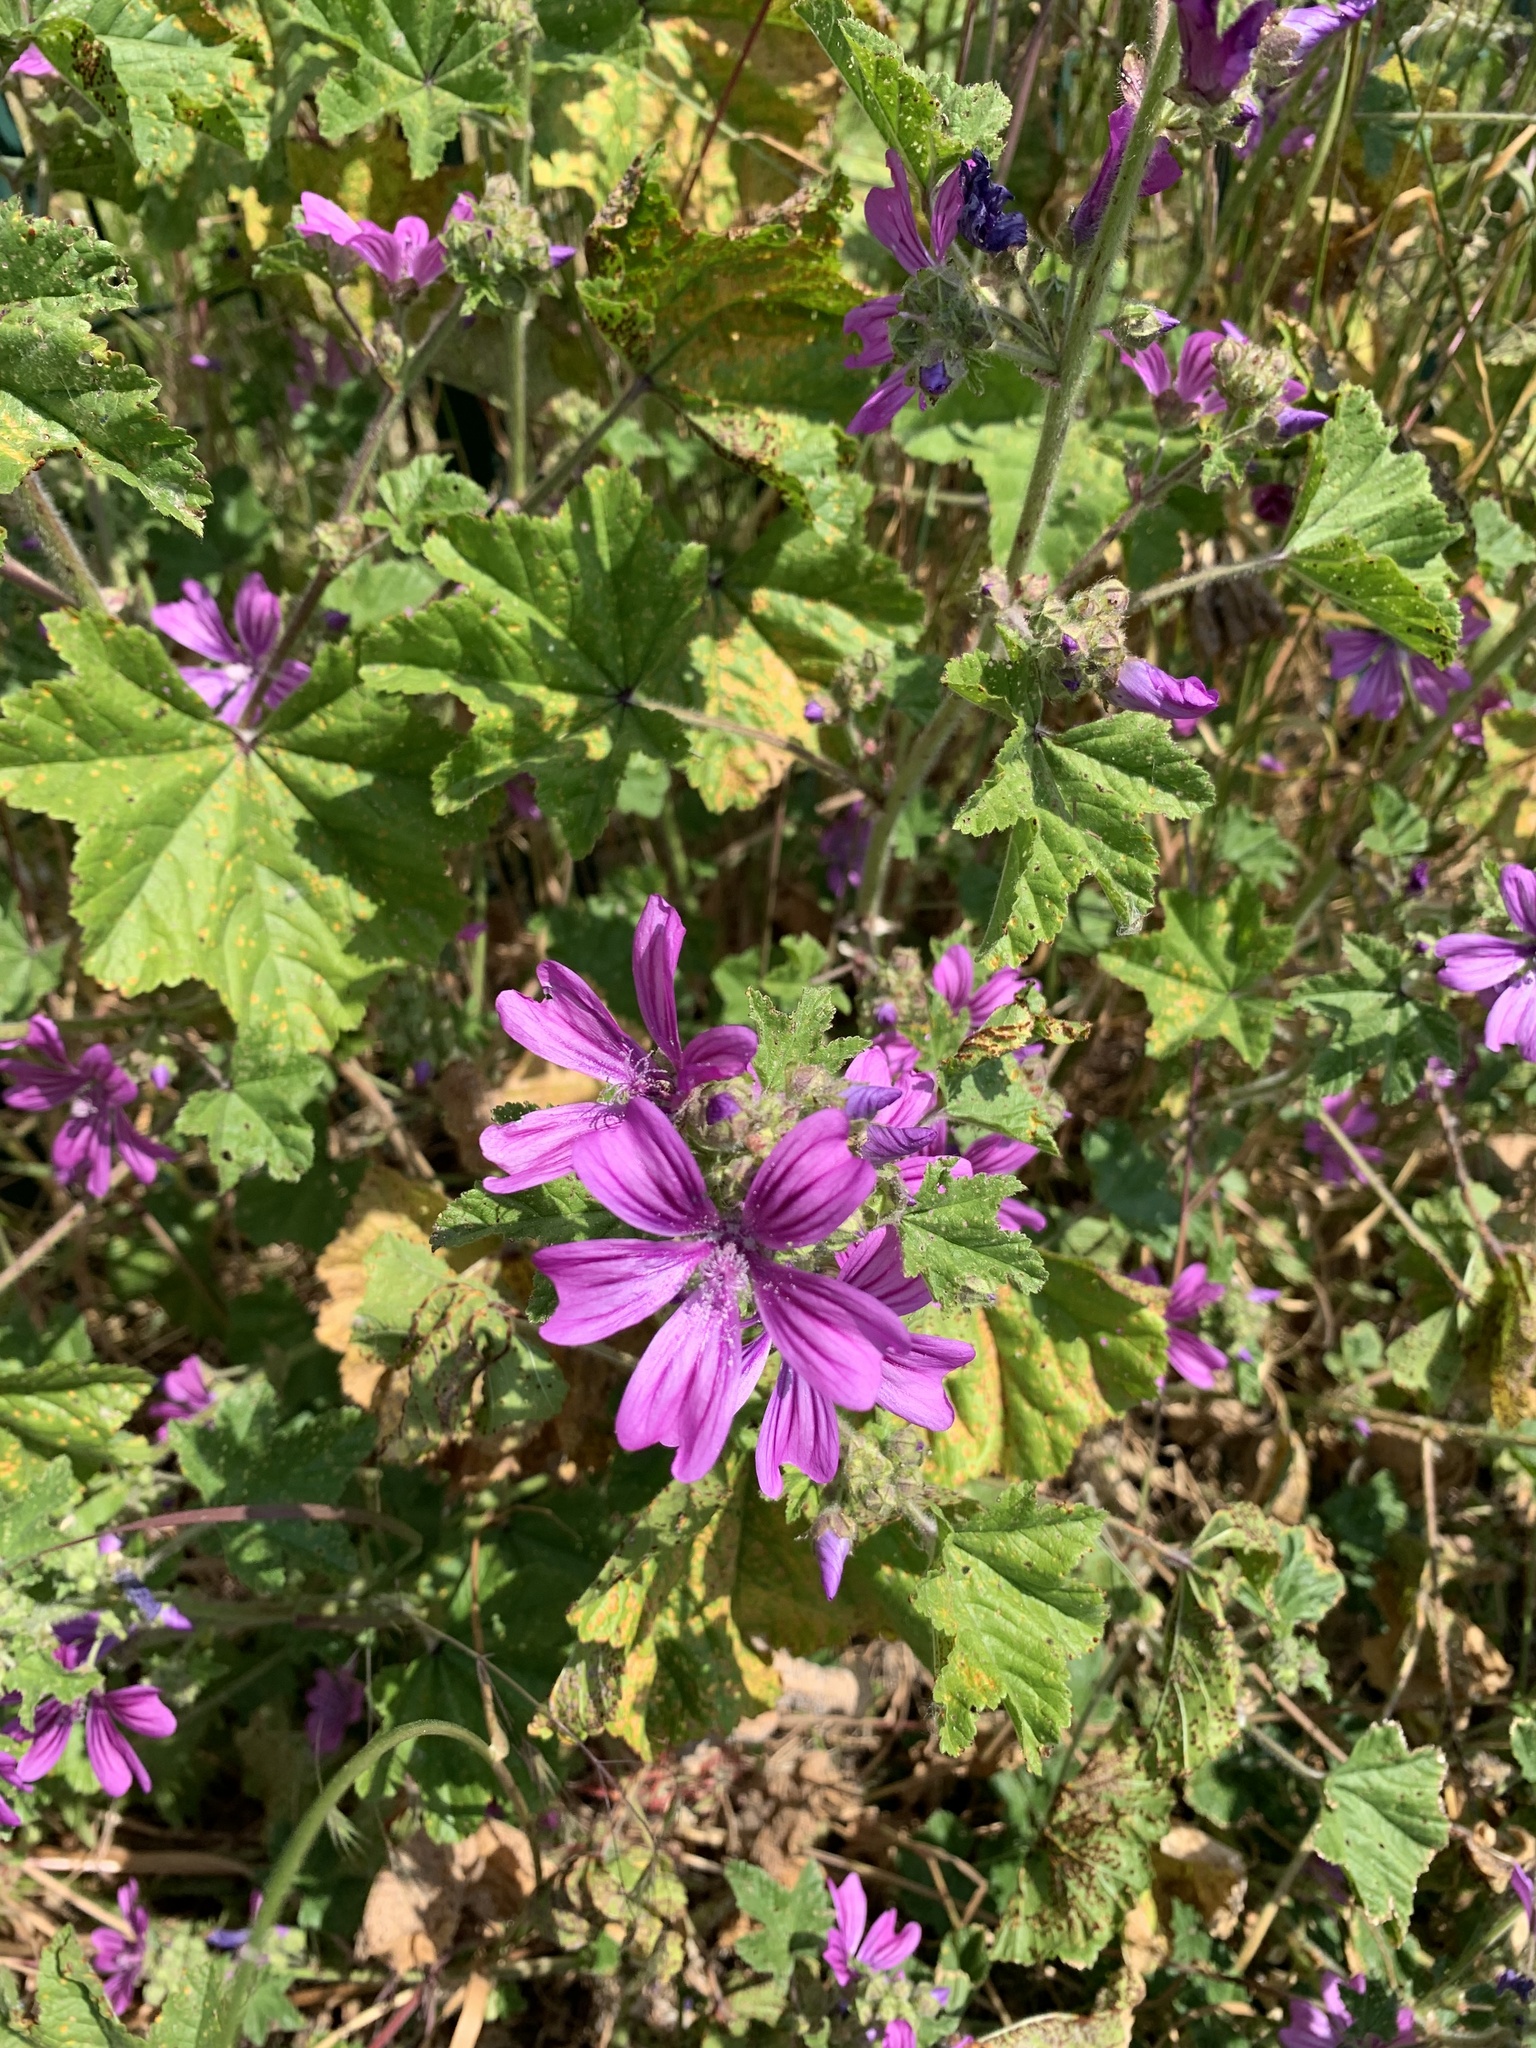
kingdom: Plantae
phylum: Tracheophyta
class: Magnoliopsida
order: Malvales
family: Malvaceae
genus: Malva
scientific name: Malva sylvestris
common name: Common mallow
